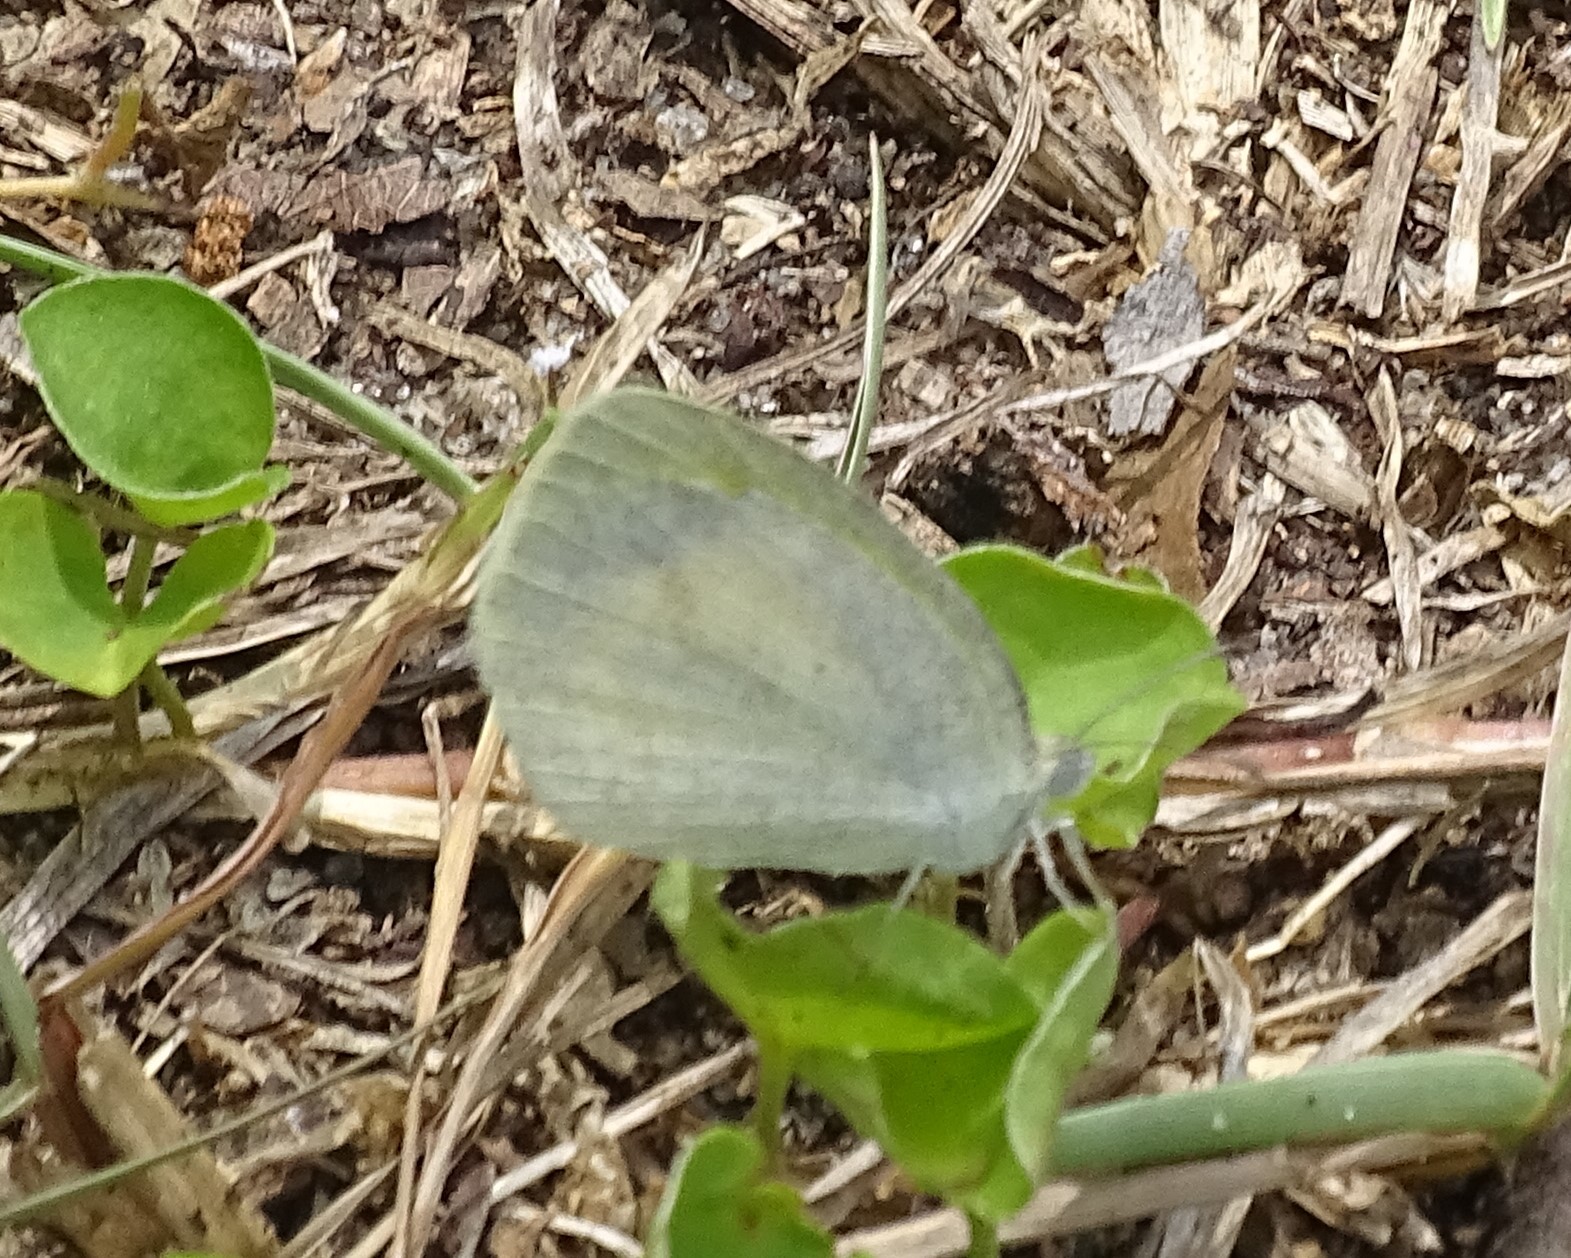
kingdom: Animalia
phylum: Arthropoda
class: Insecta
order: Lepidoptera
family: Pieridae
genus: Eurema
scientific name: Eurema daira
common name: Barred sulphur
